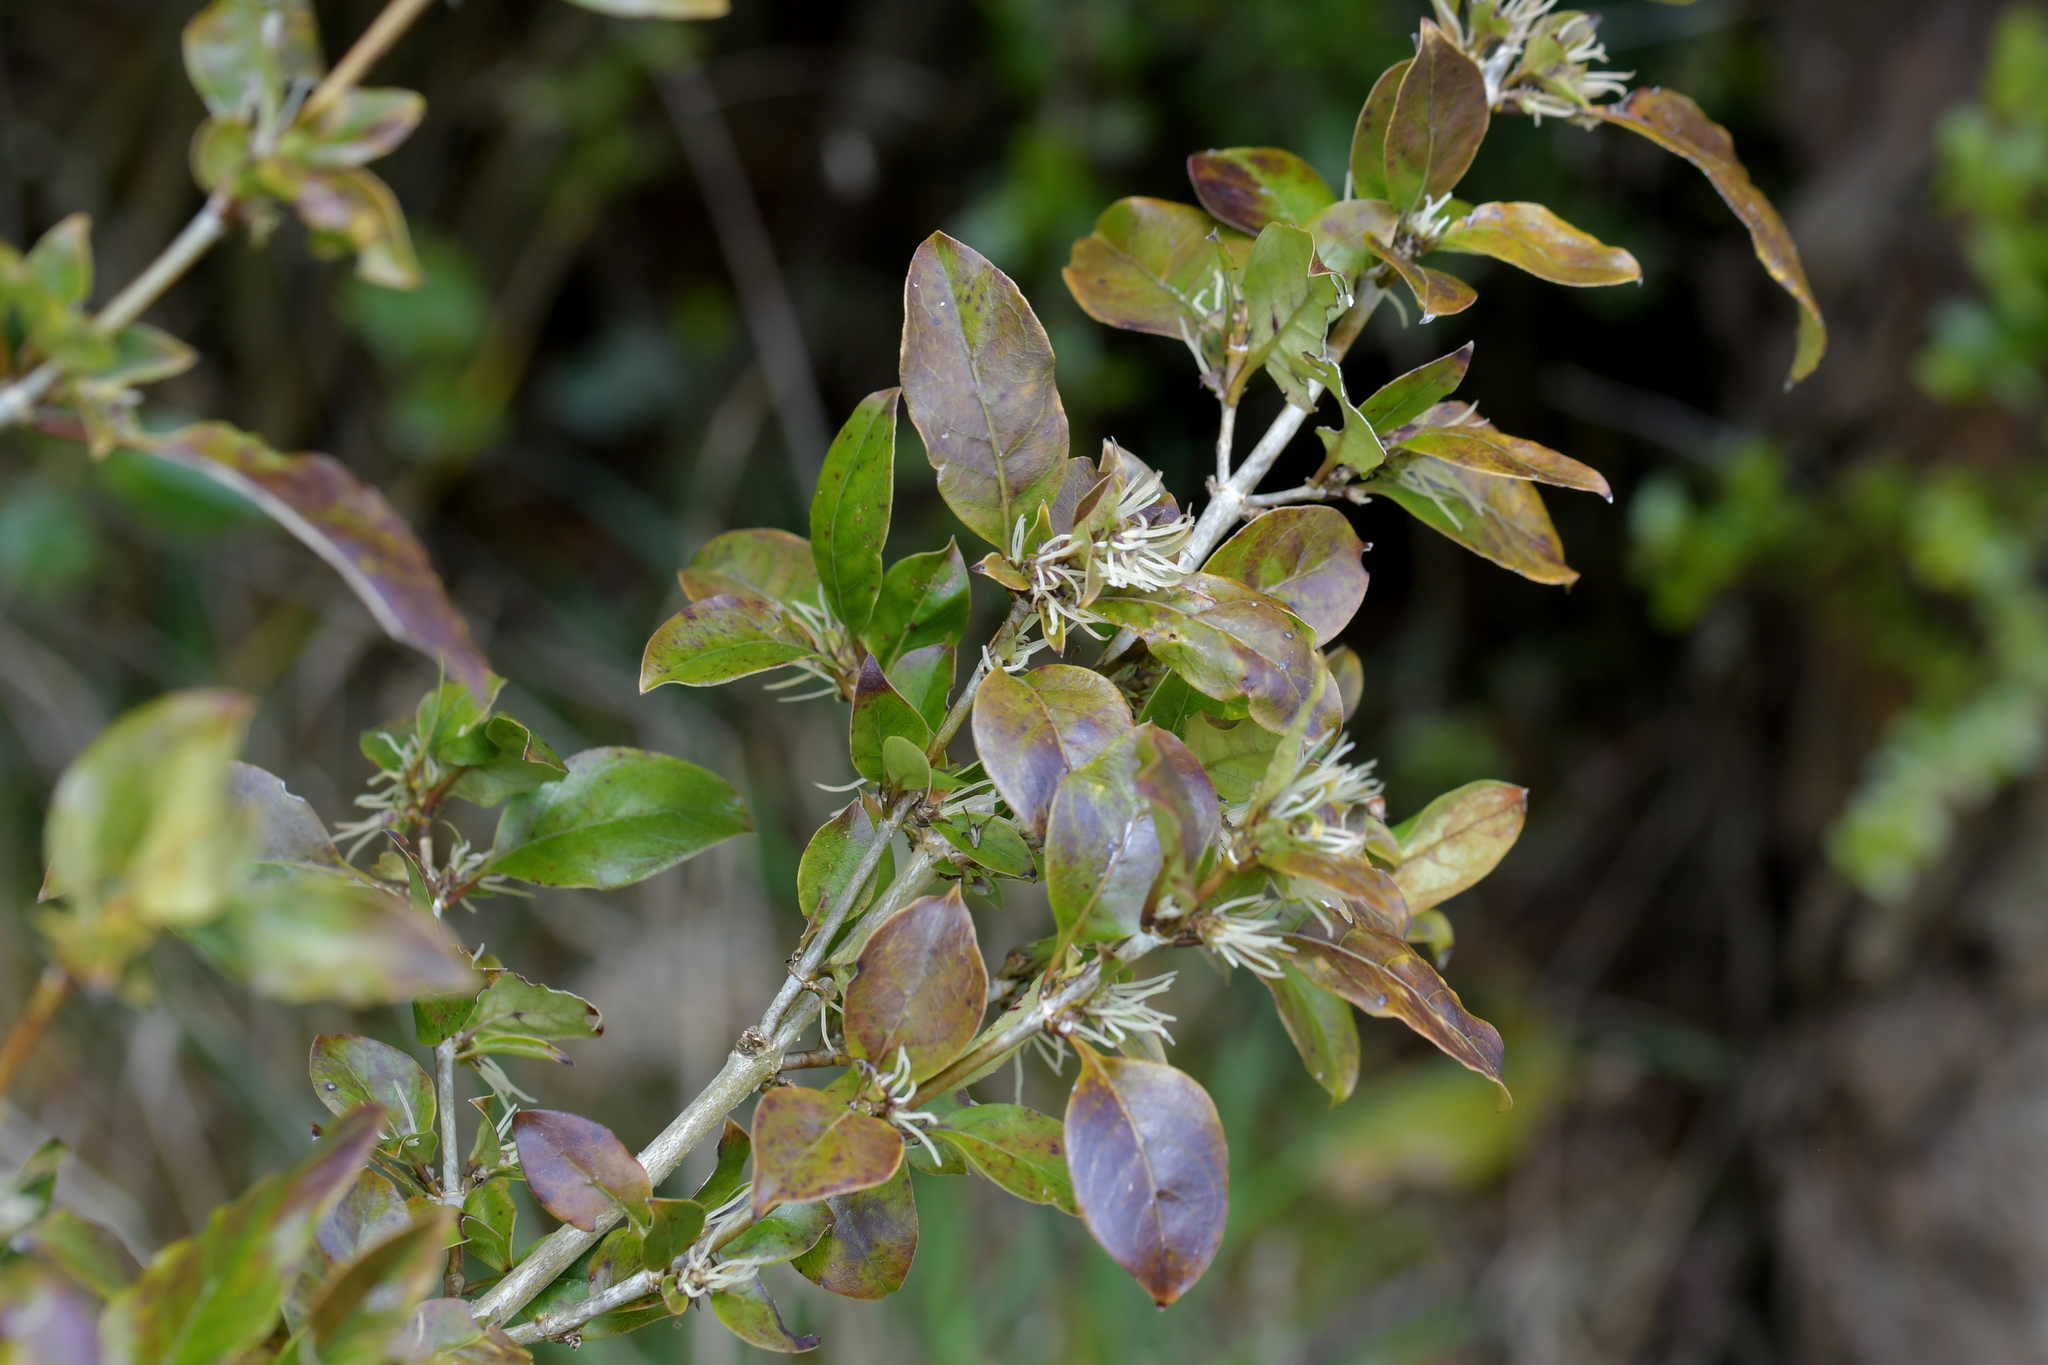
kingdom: Plantae
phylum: Tracheophyta
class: Magnoliopsida
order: Gentianales
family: Rubiaceae
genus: Coprosma
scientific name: Coprosma tenuifolia
